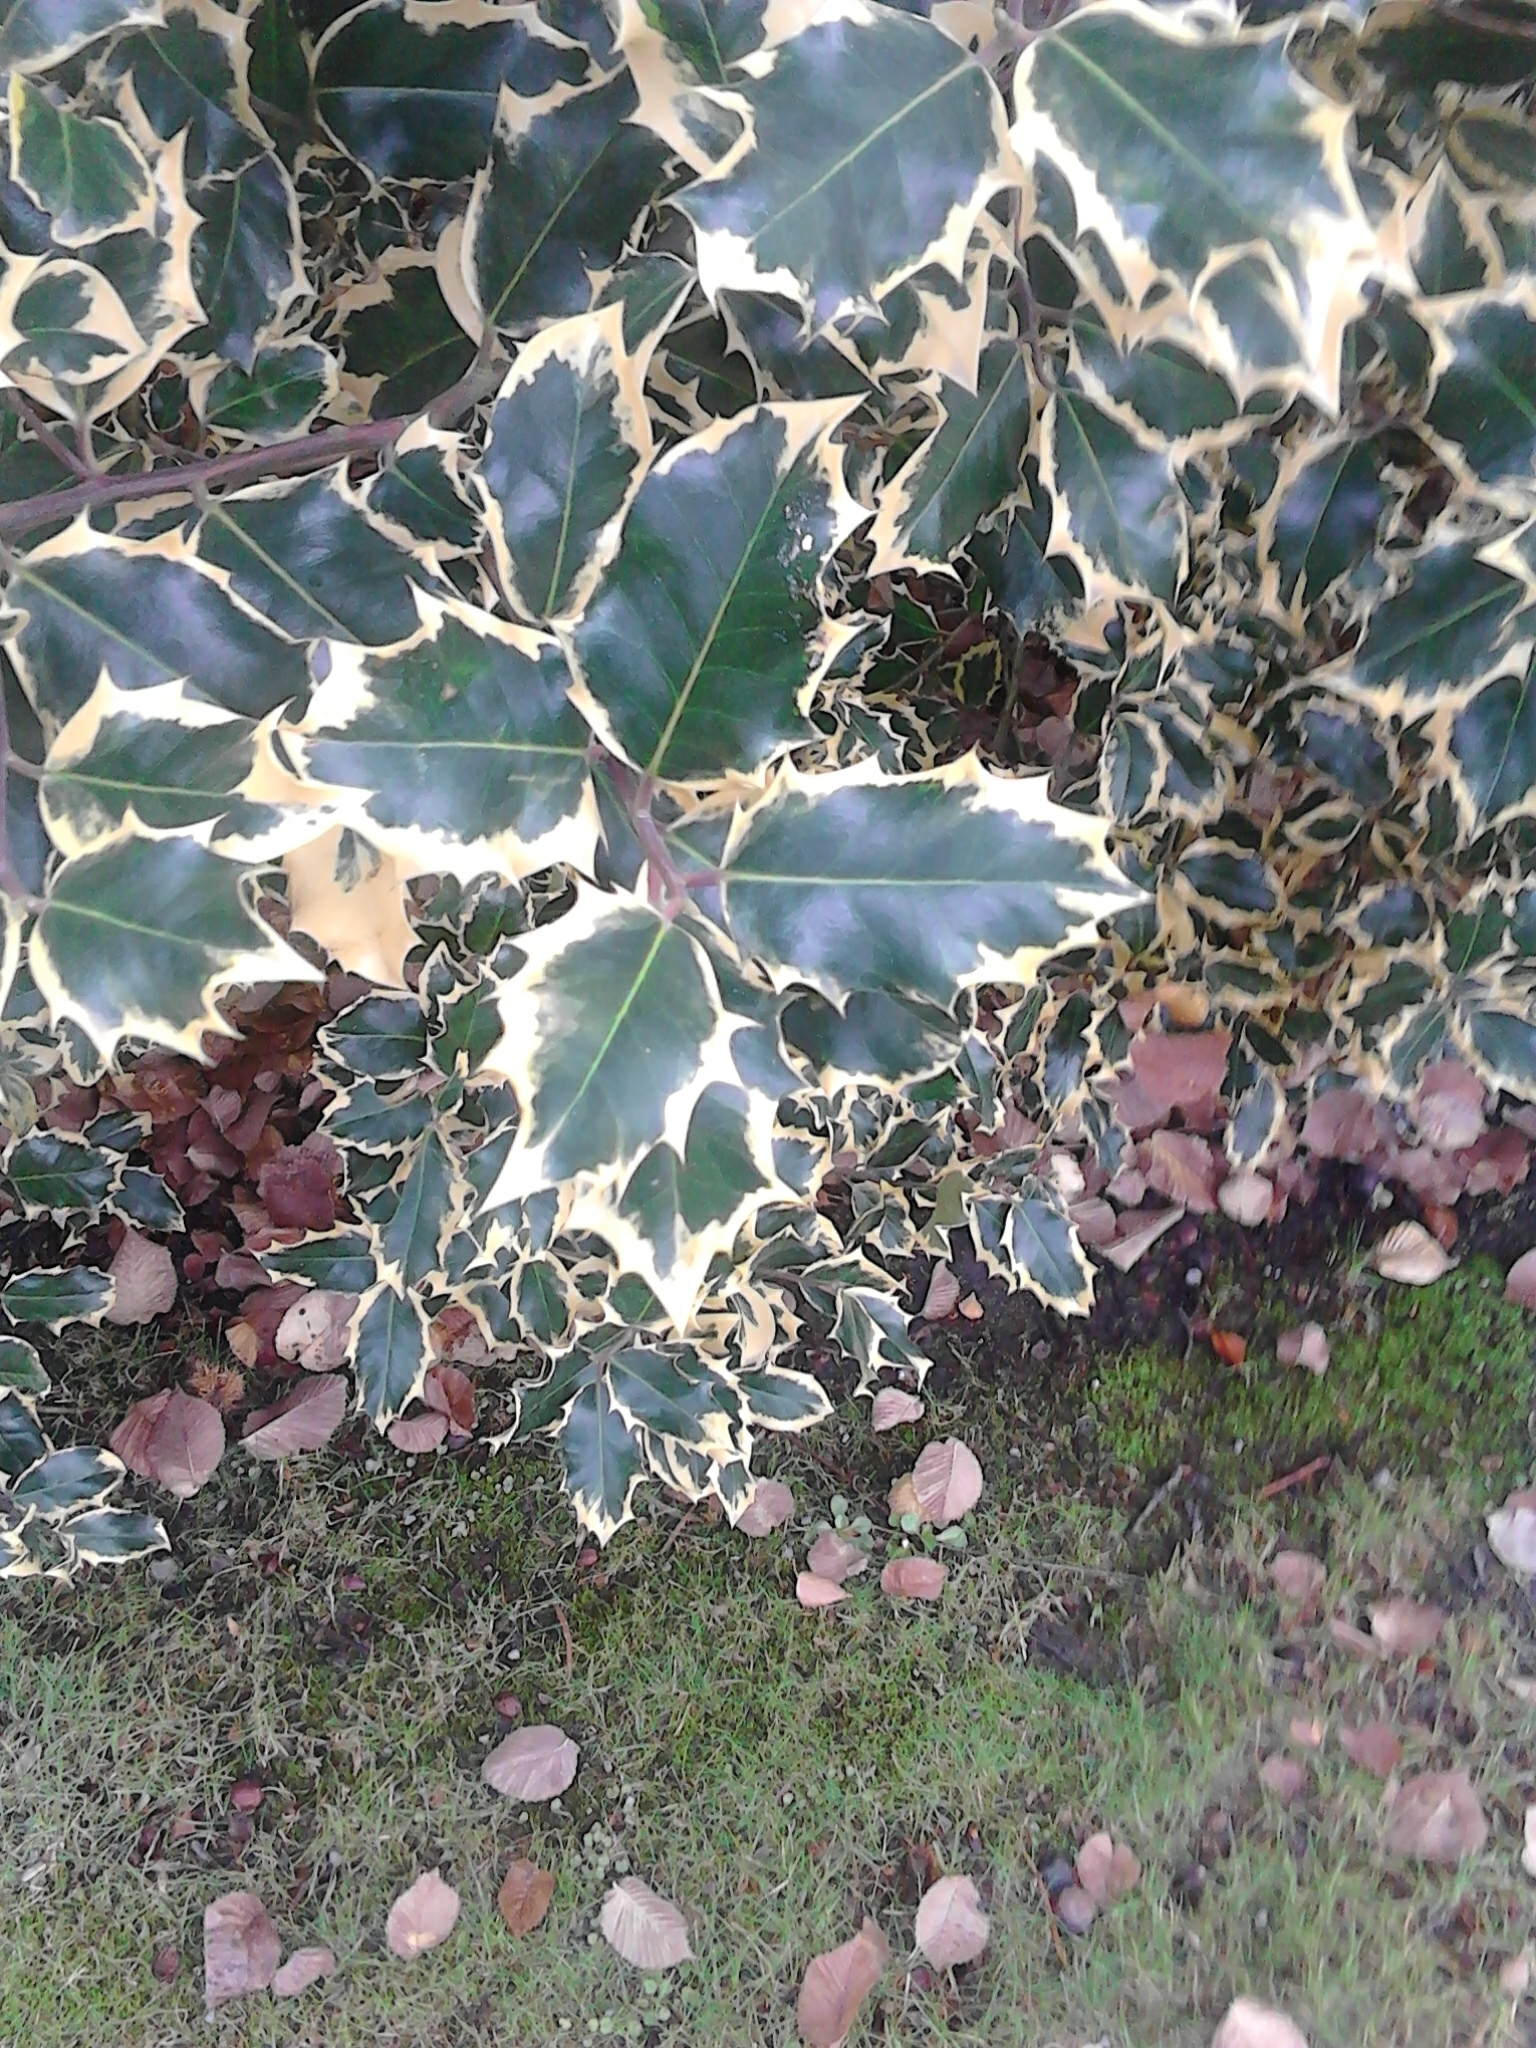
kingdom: Plantae
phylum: Tracheophyta
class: Magnoliopsida
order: Aquifoliales
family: Aquifoliaceae
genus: Ilex
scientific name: Ilex aquifolium
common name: English holly
